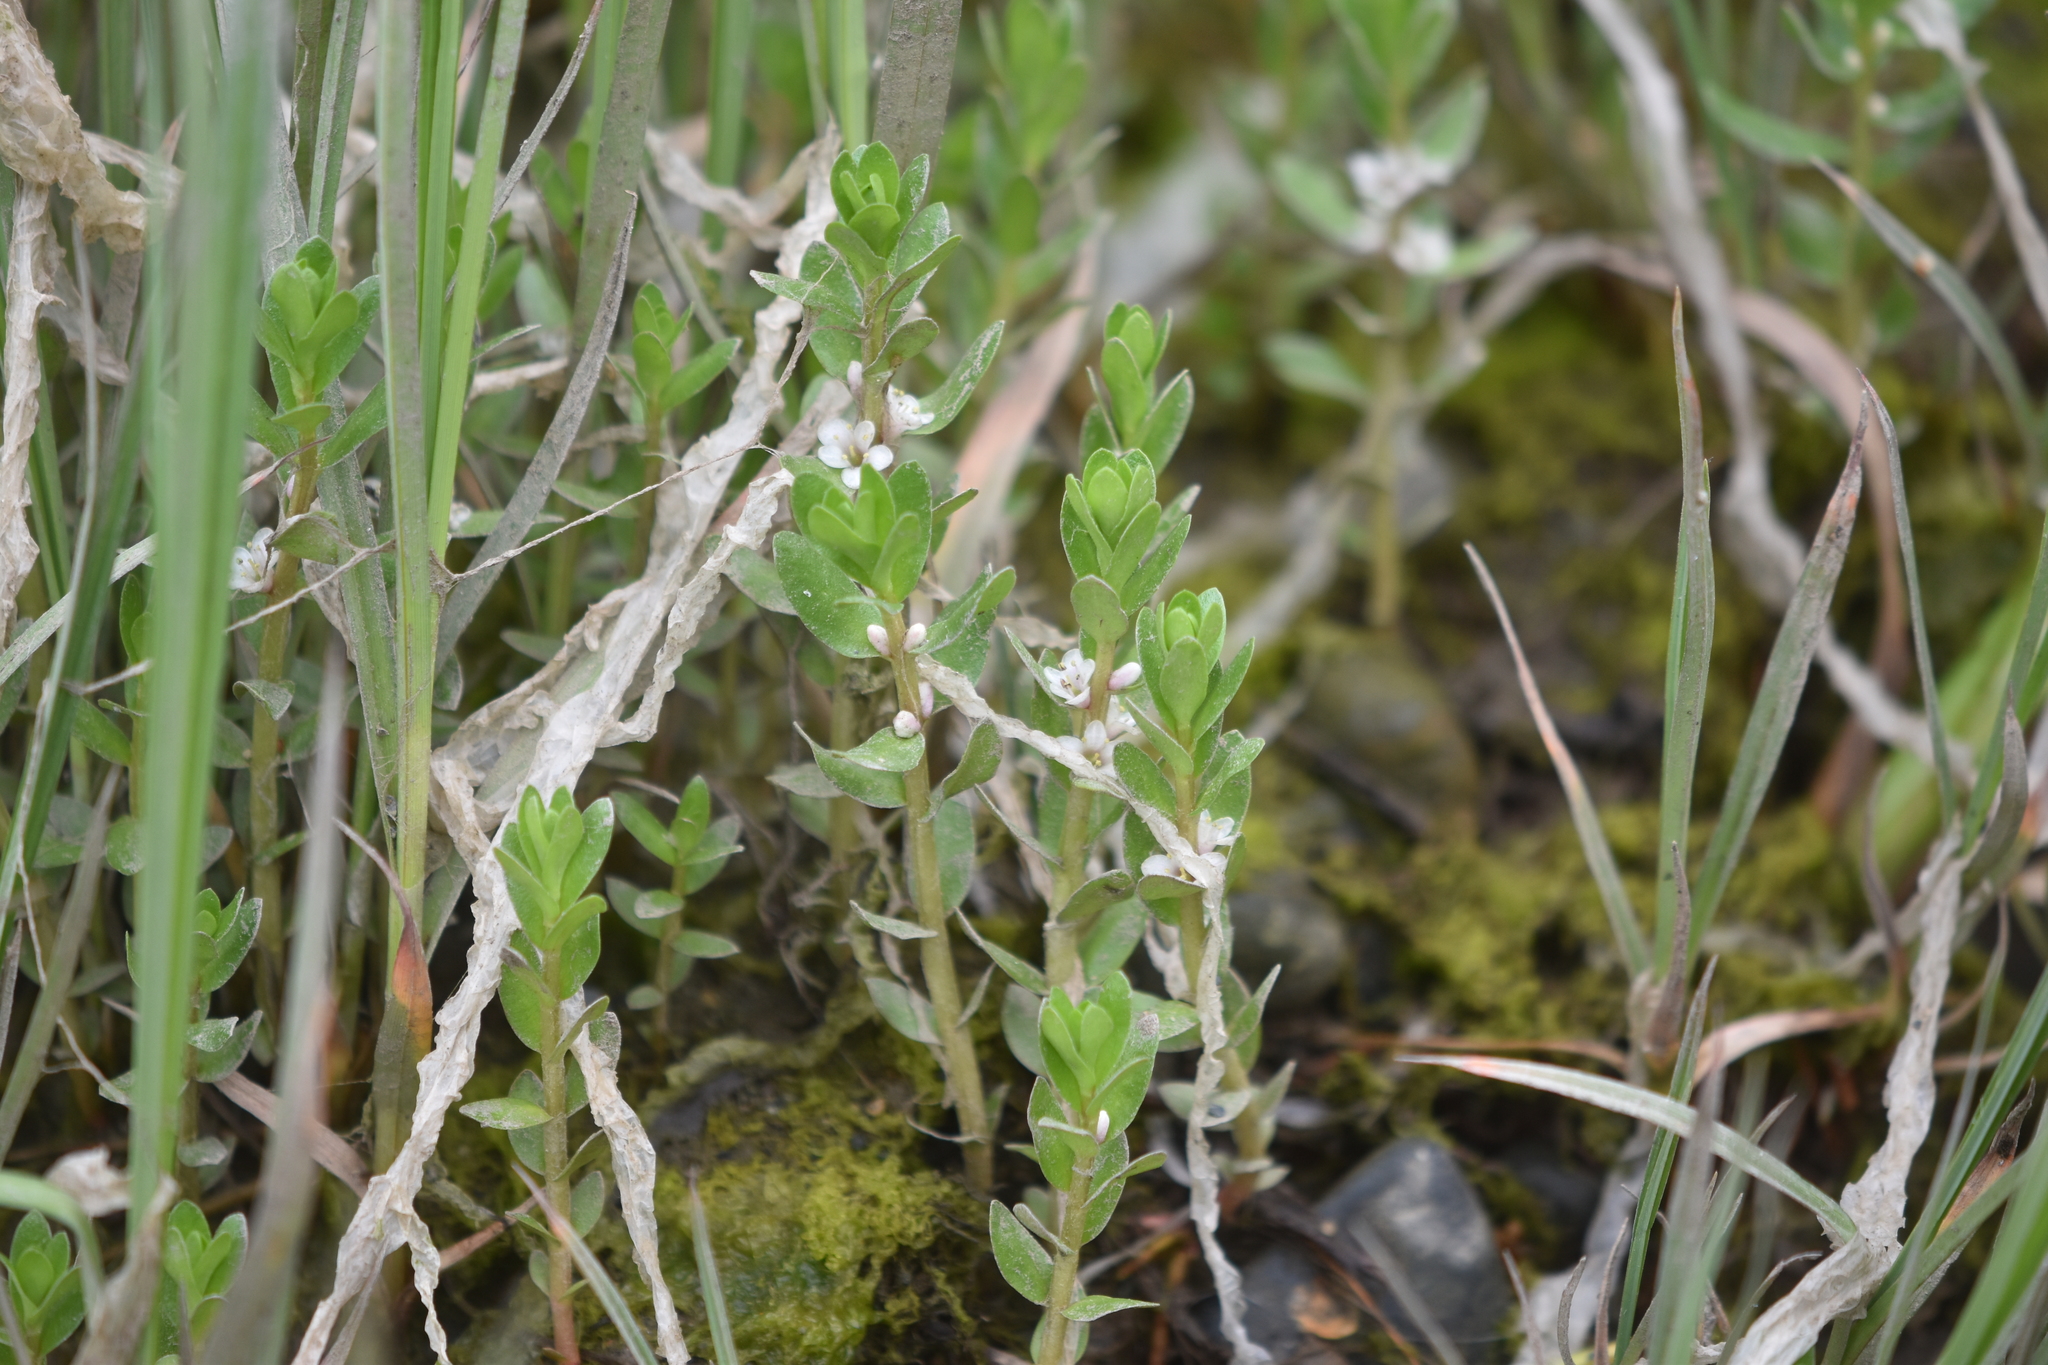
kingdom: Plantae
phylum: Tracheophyta
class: Magnoliopsida
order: Ericales
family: Primulaceae
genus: Lysimachia
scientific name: Lysimachia maritima
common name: Sea milkwort
